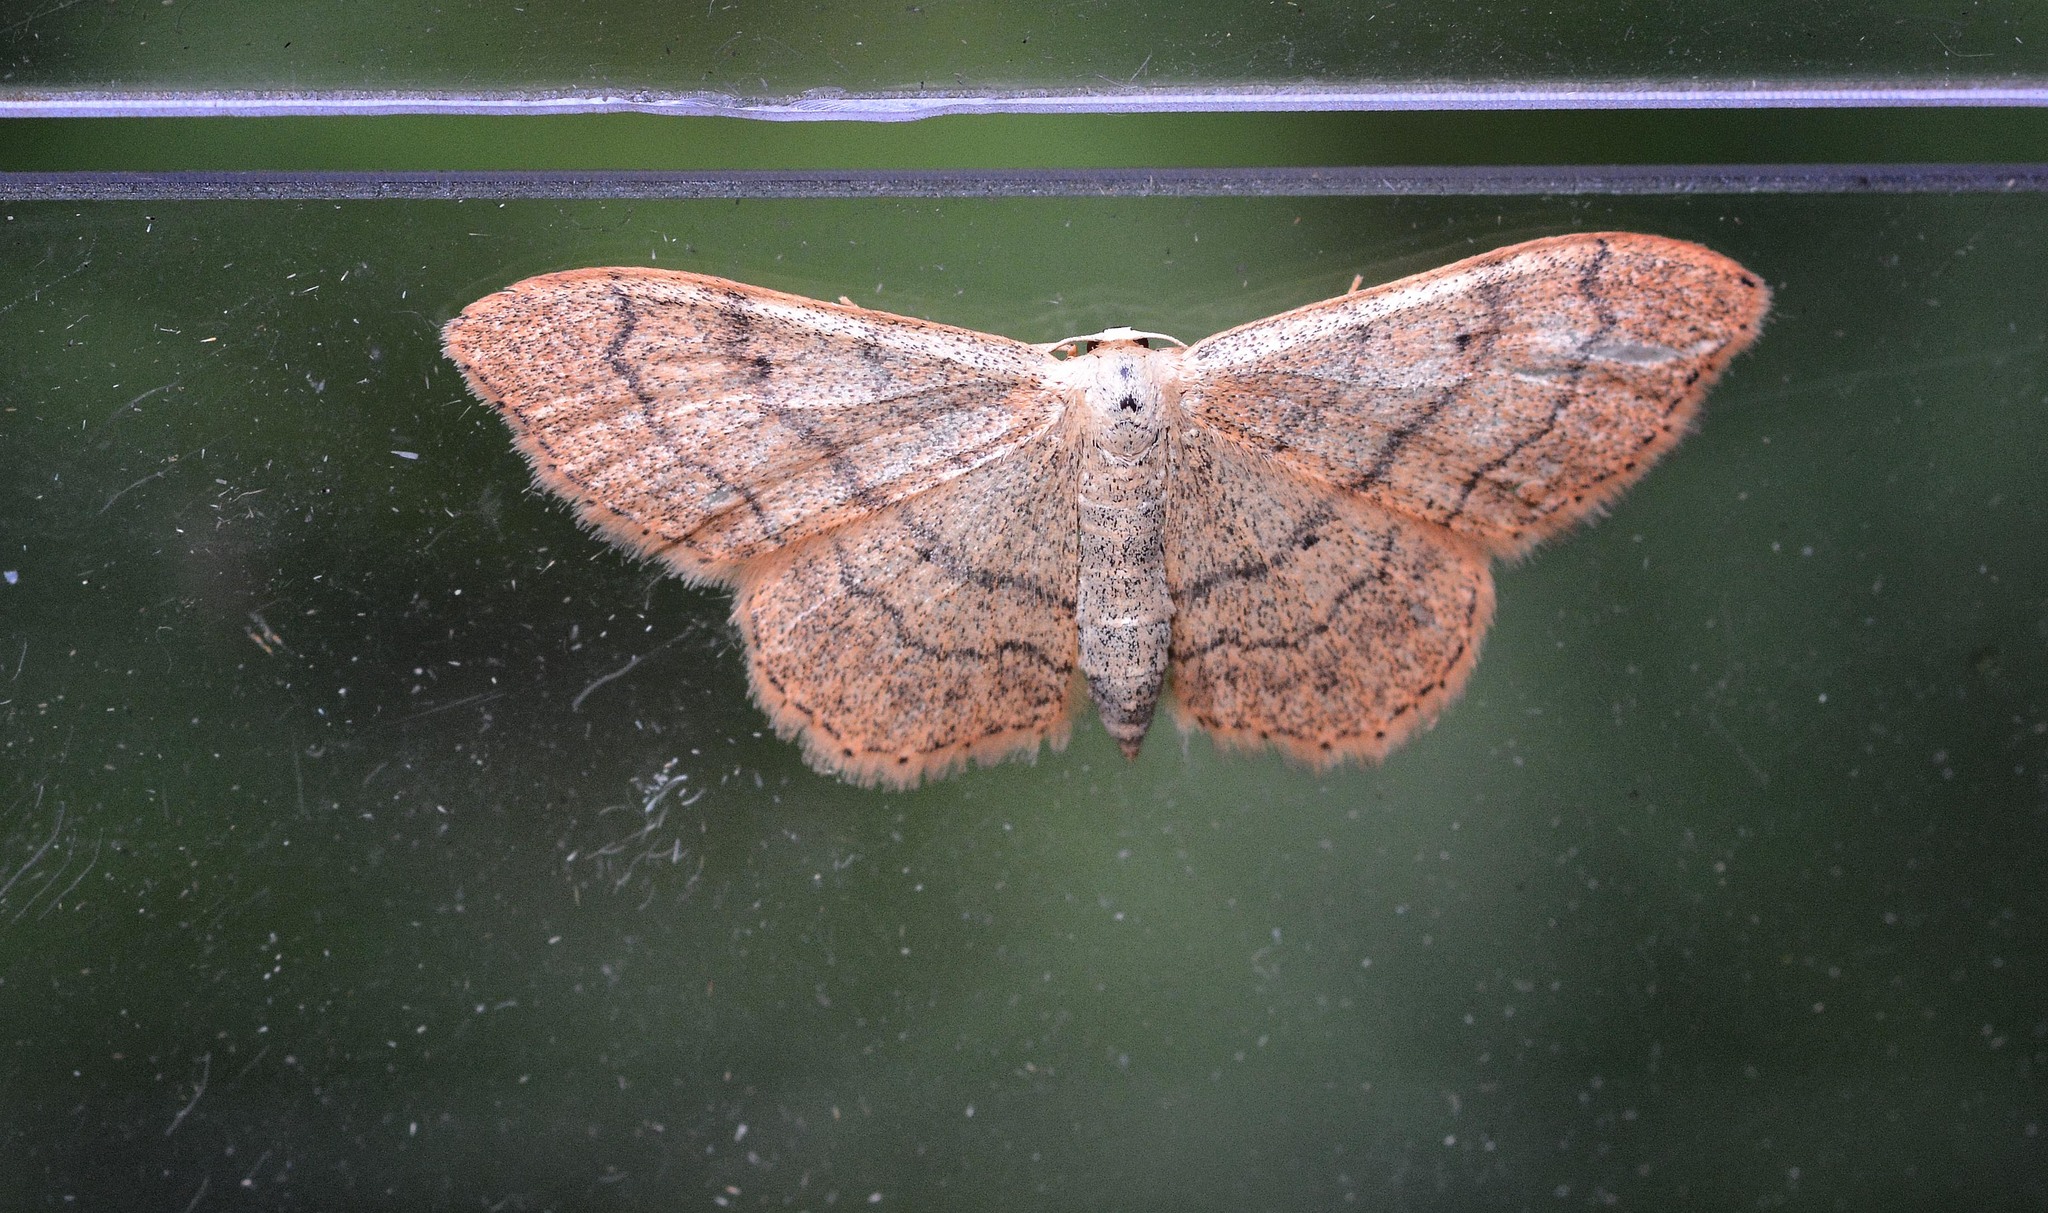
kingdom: Animalia
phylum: Arthropoda
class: Insecta
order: Lepidoptera
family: Geometridae
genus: Idaea
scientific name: Idaea aversata
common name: Riband wave
